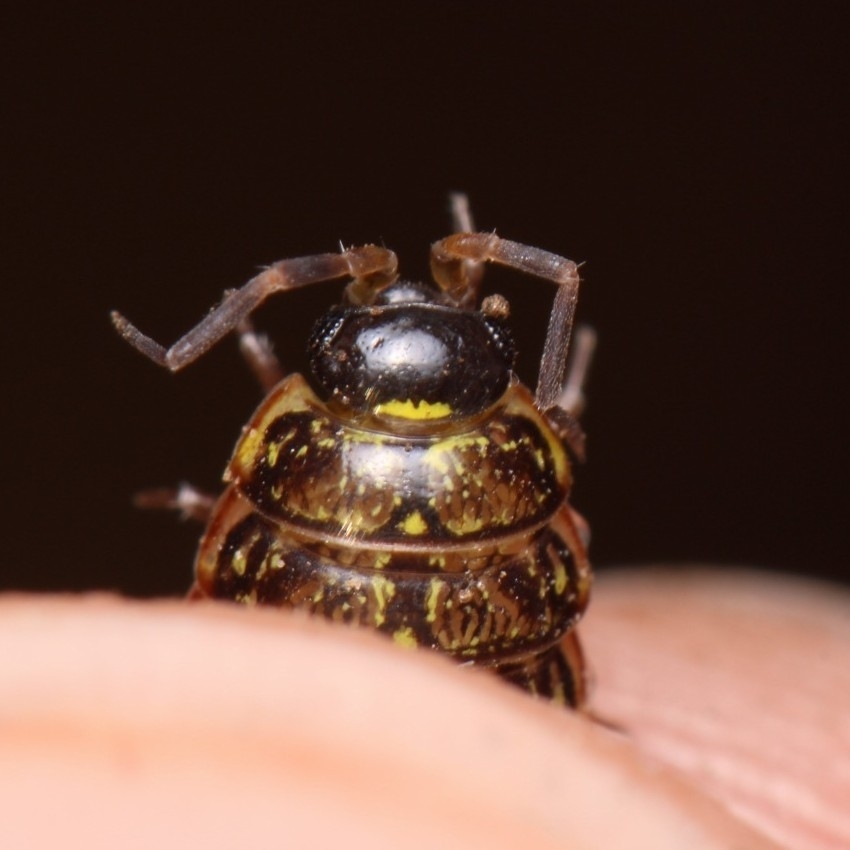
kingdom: Animalia
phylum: Arthropoda
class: Malacostraca
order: Isopoda
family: Philosciidae
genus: Philoscia
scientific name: Philoscia muscorum
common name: Common striped woodlouse
